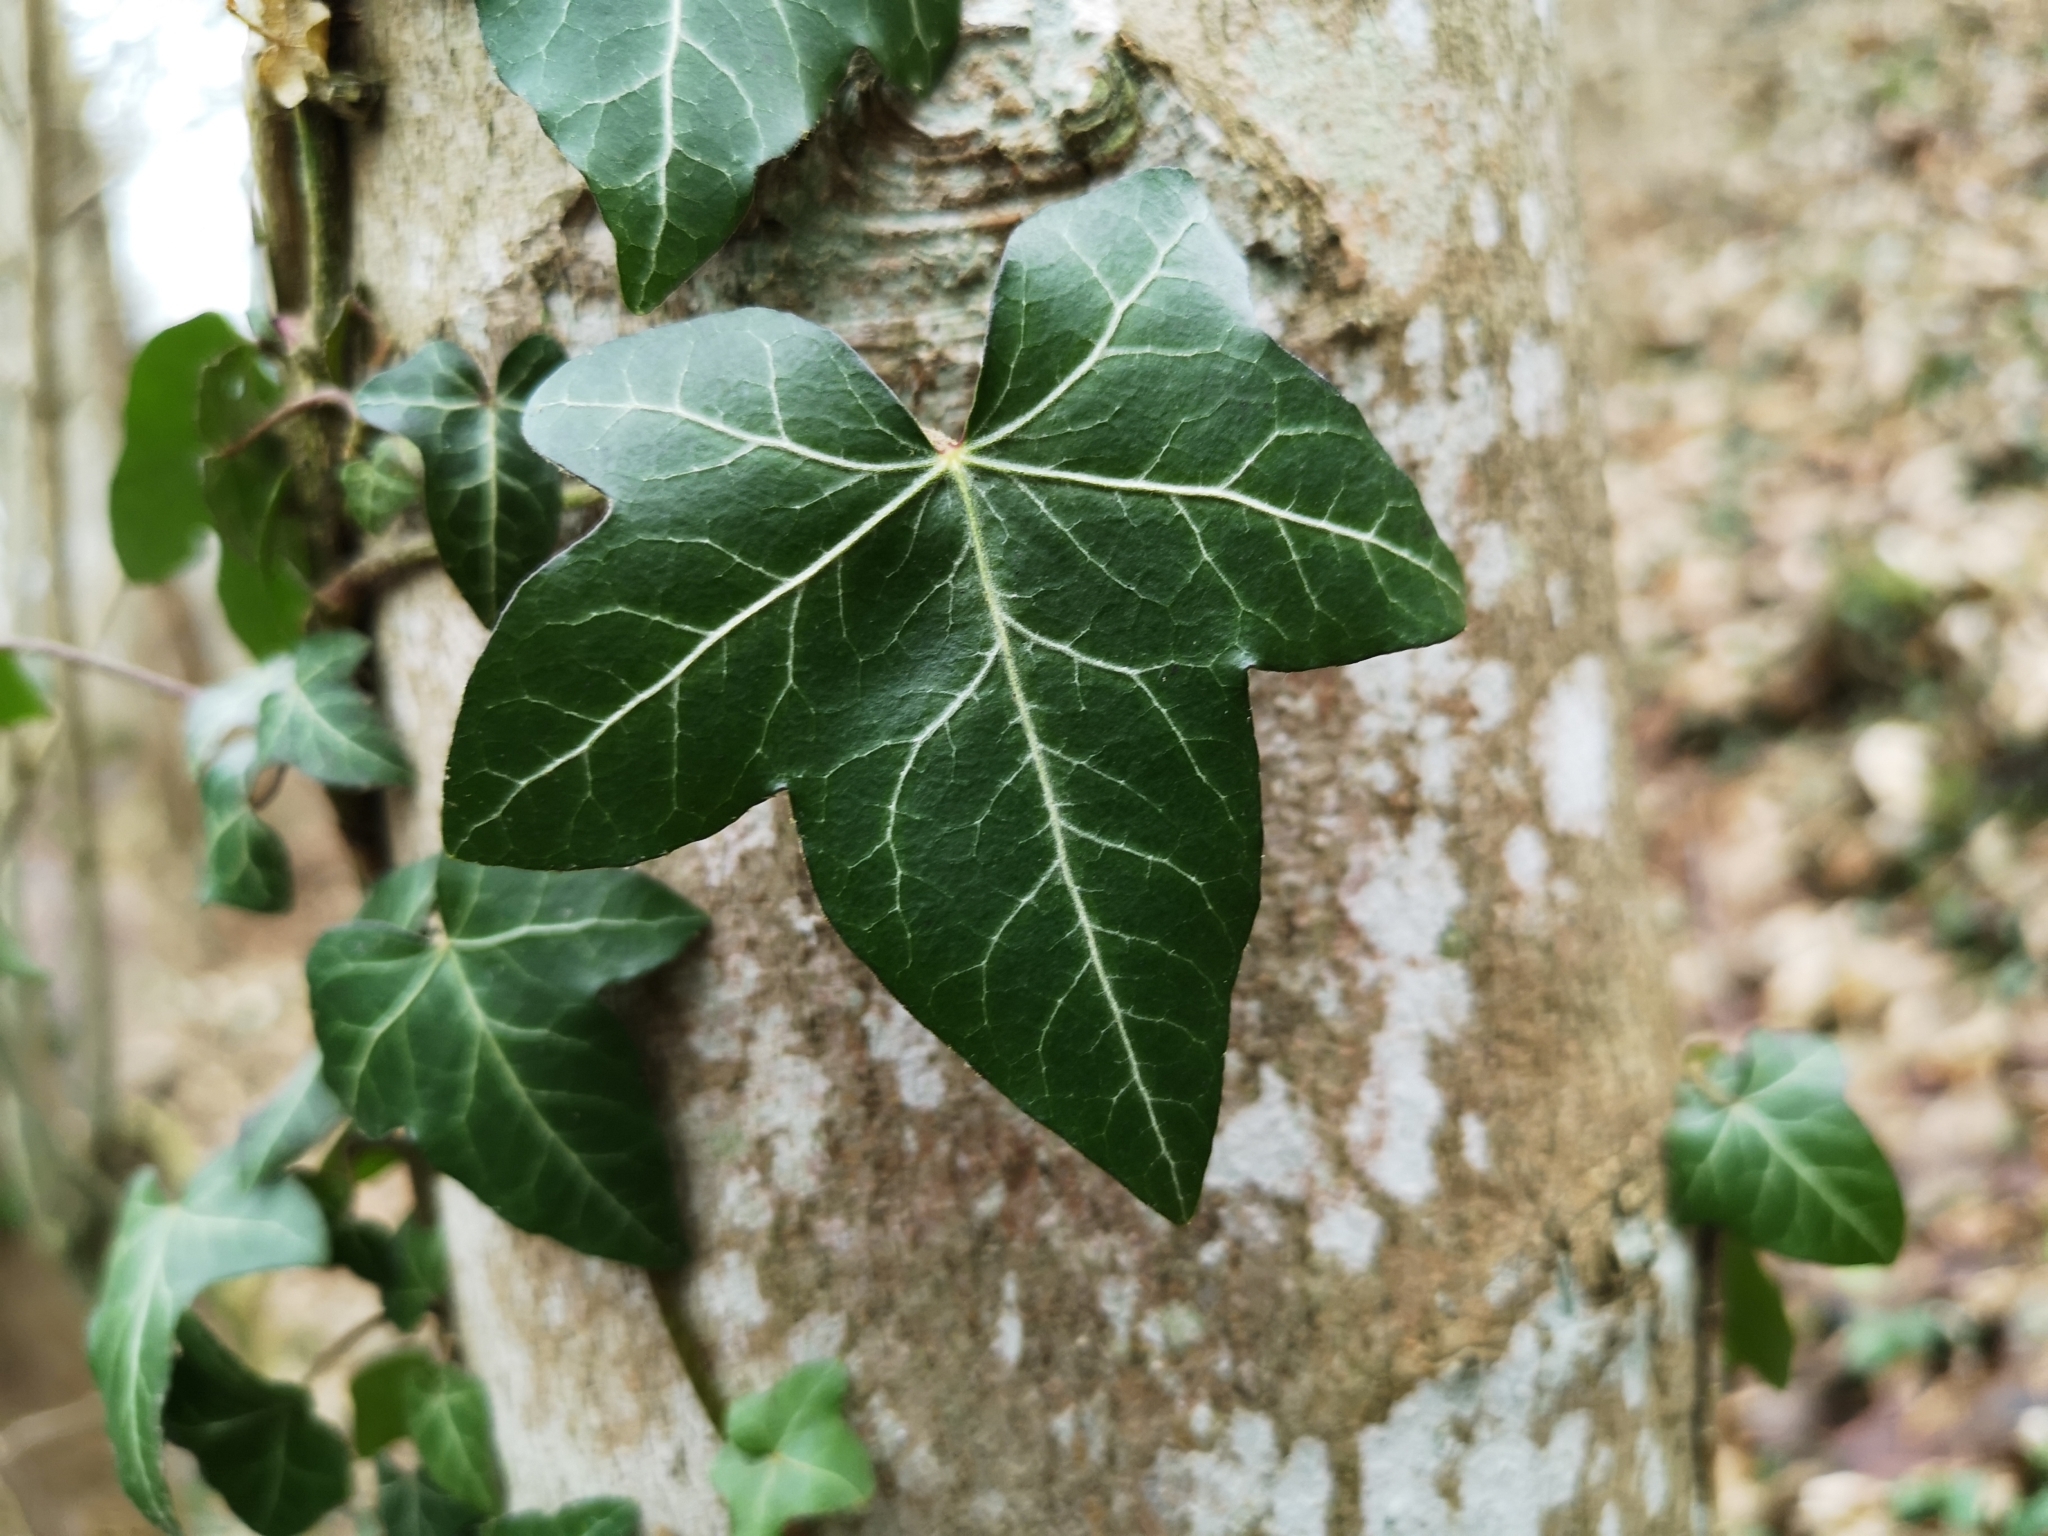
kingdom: Plantae
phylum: Tracheophyta
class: Magnoliopsida
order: Apiales
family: Araliaceae
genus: Hedera
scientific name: Hedera helix
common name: Ivy
